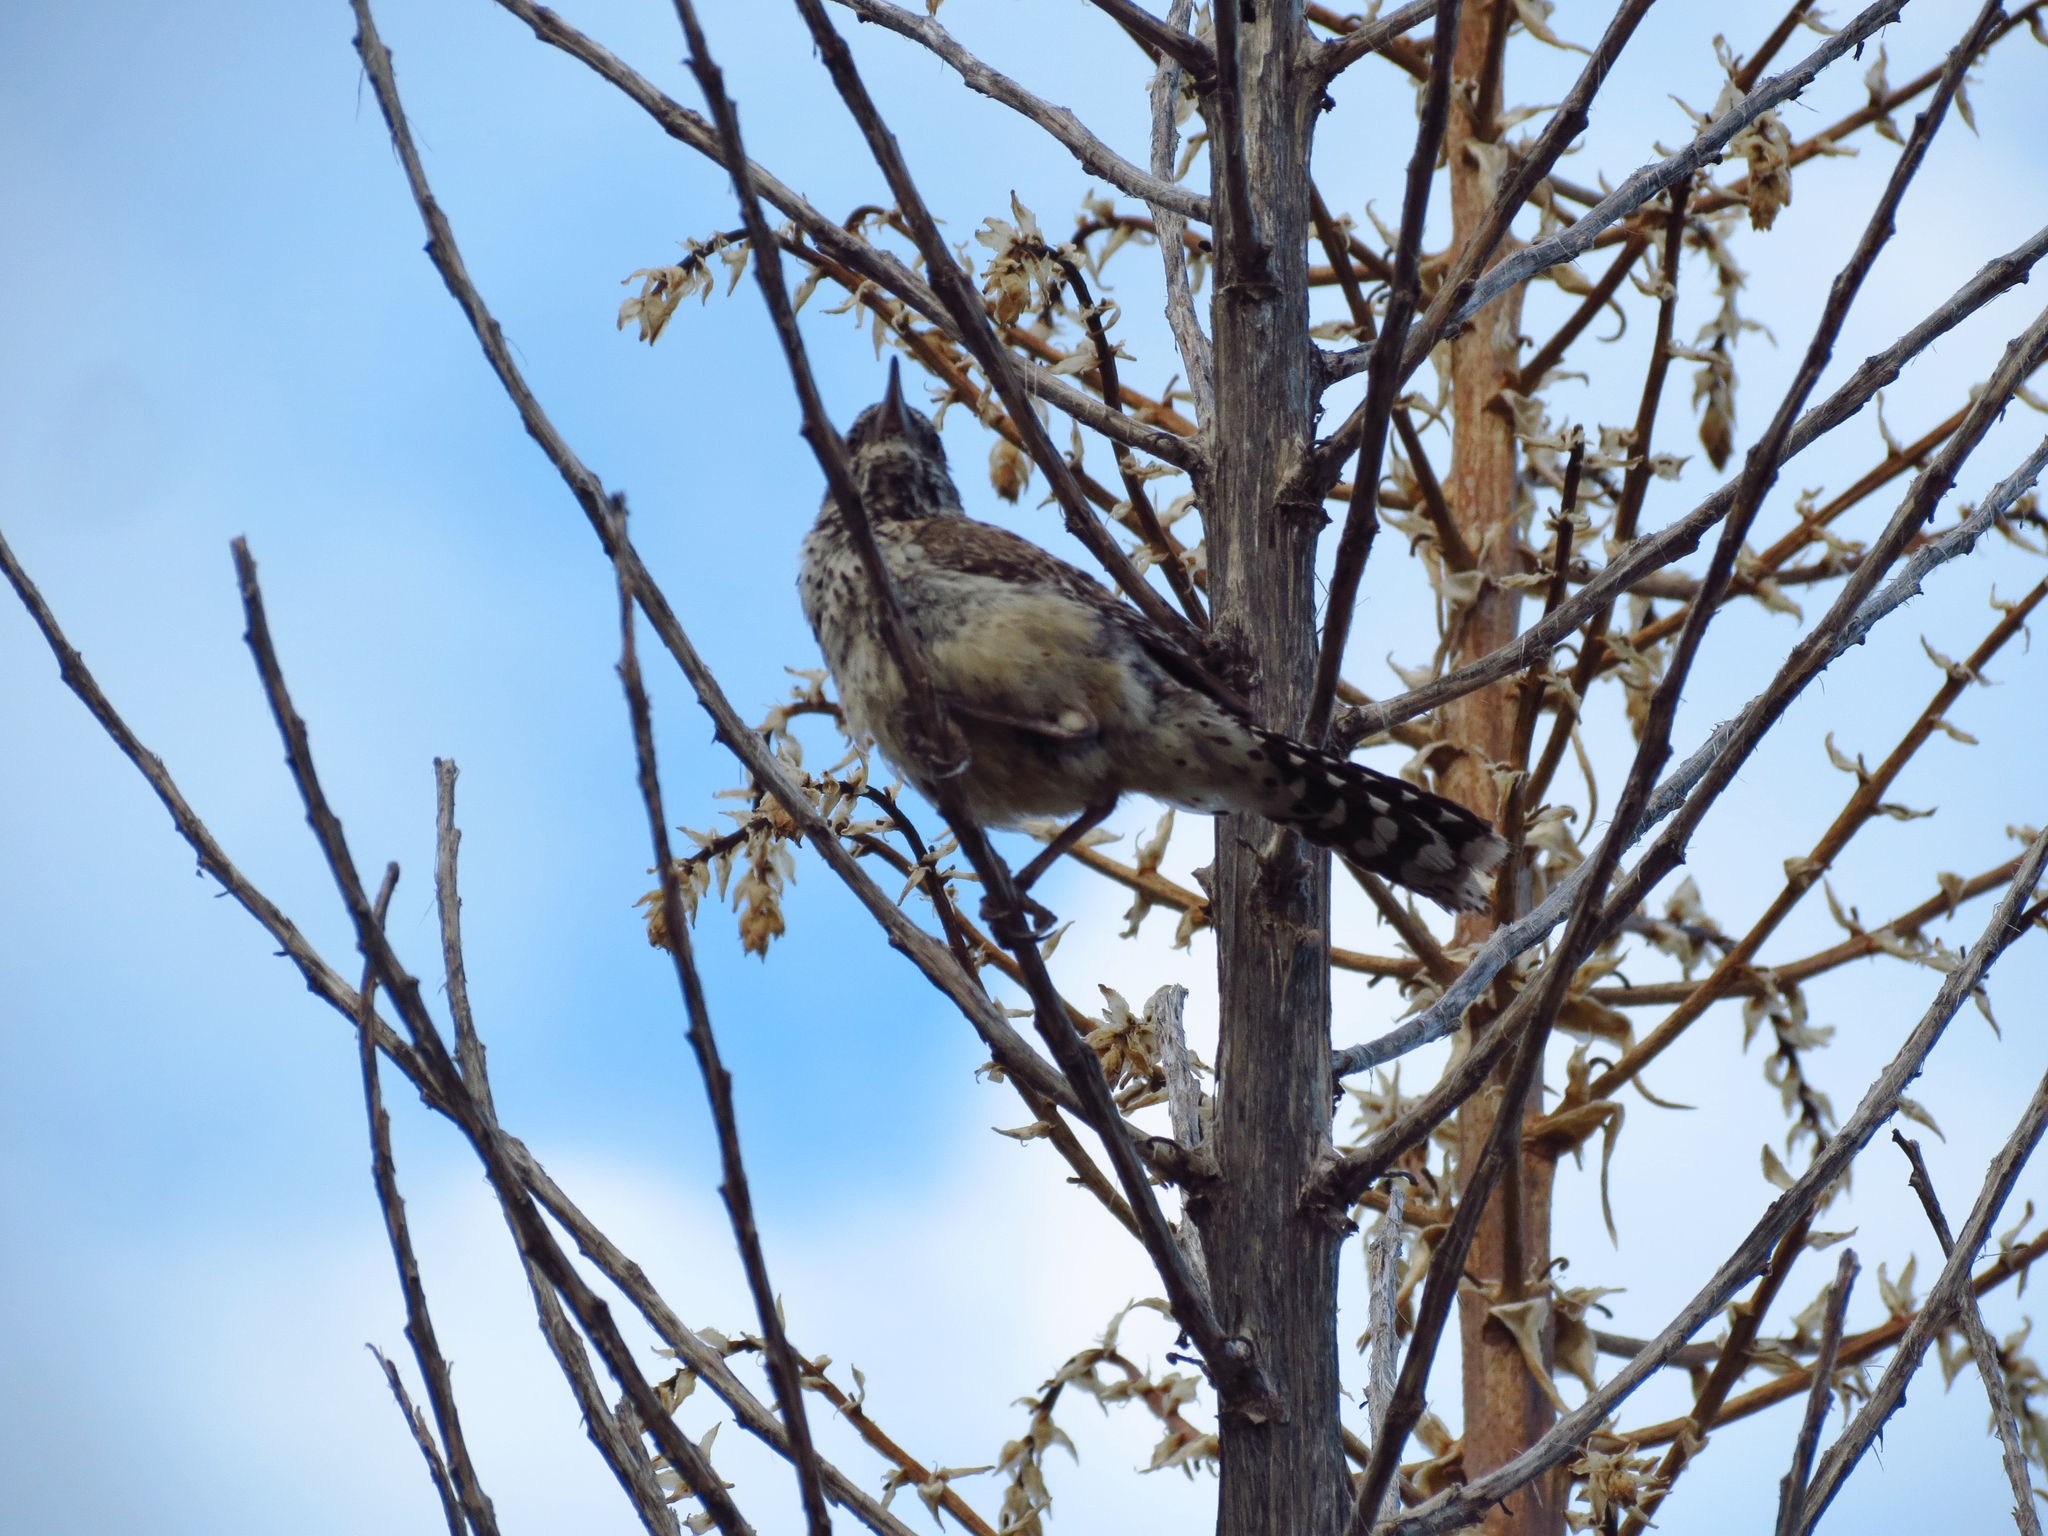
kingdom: Animalia
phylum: Chordata
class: Aves
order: Passeriformes
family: Troglodytidae
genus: Campylorhynchus
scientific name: Campylorhynchus brunneicapillus
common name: Cactus wren
